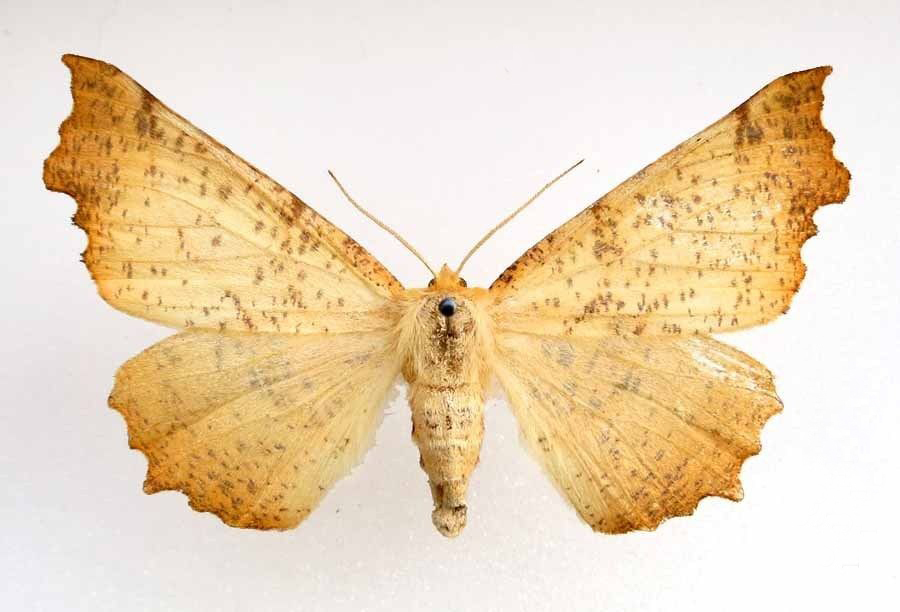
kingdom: Animalia
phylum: Arthropoda
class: Insecta
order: Lepidoptera
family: Geometridae
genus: Ennomos
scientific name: Ennomos autumnaria
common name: Large thorn
